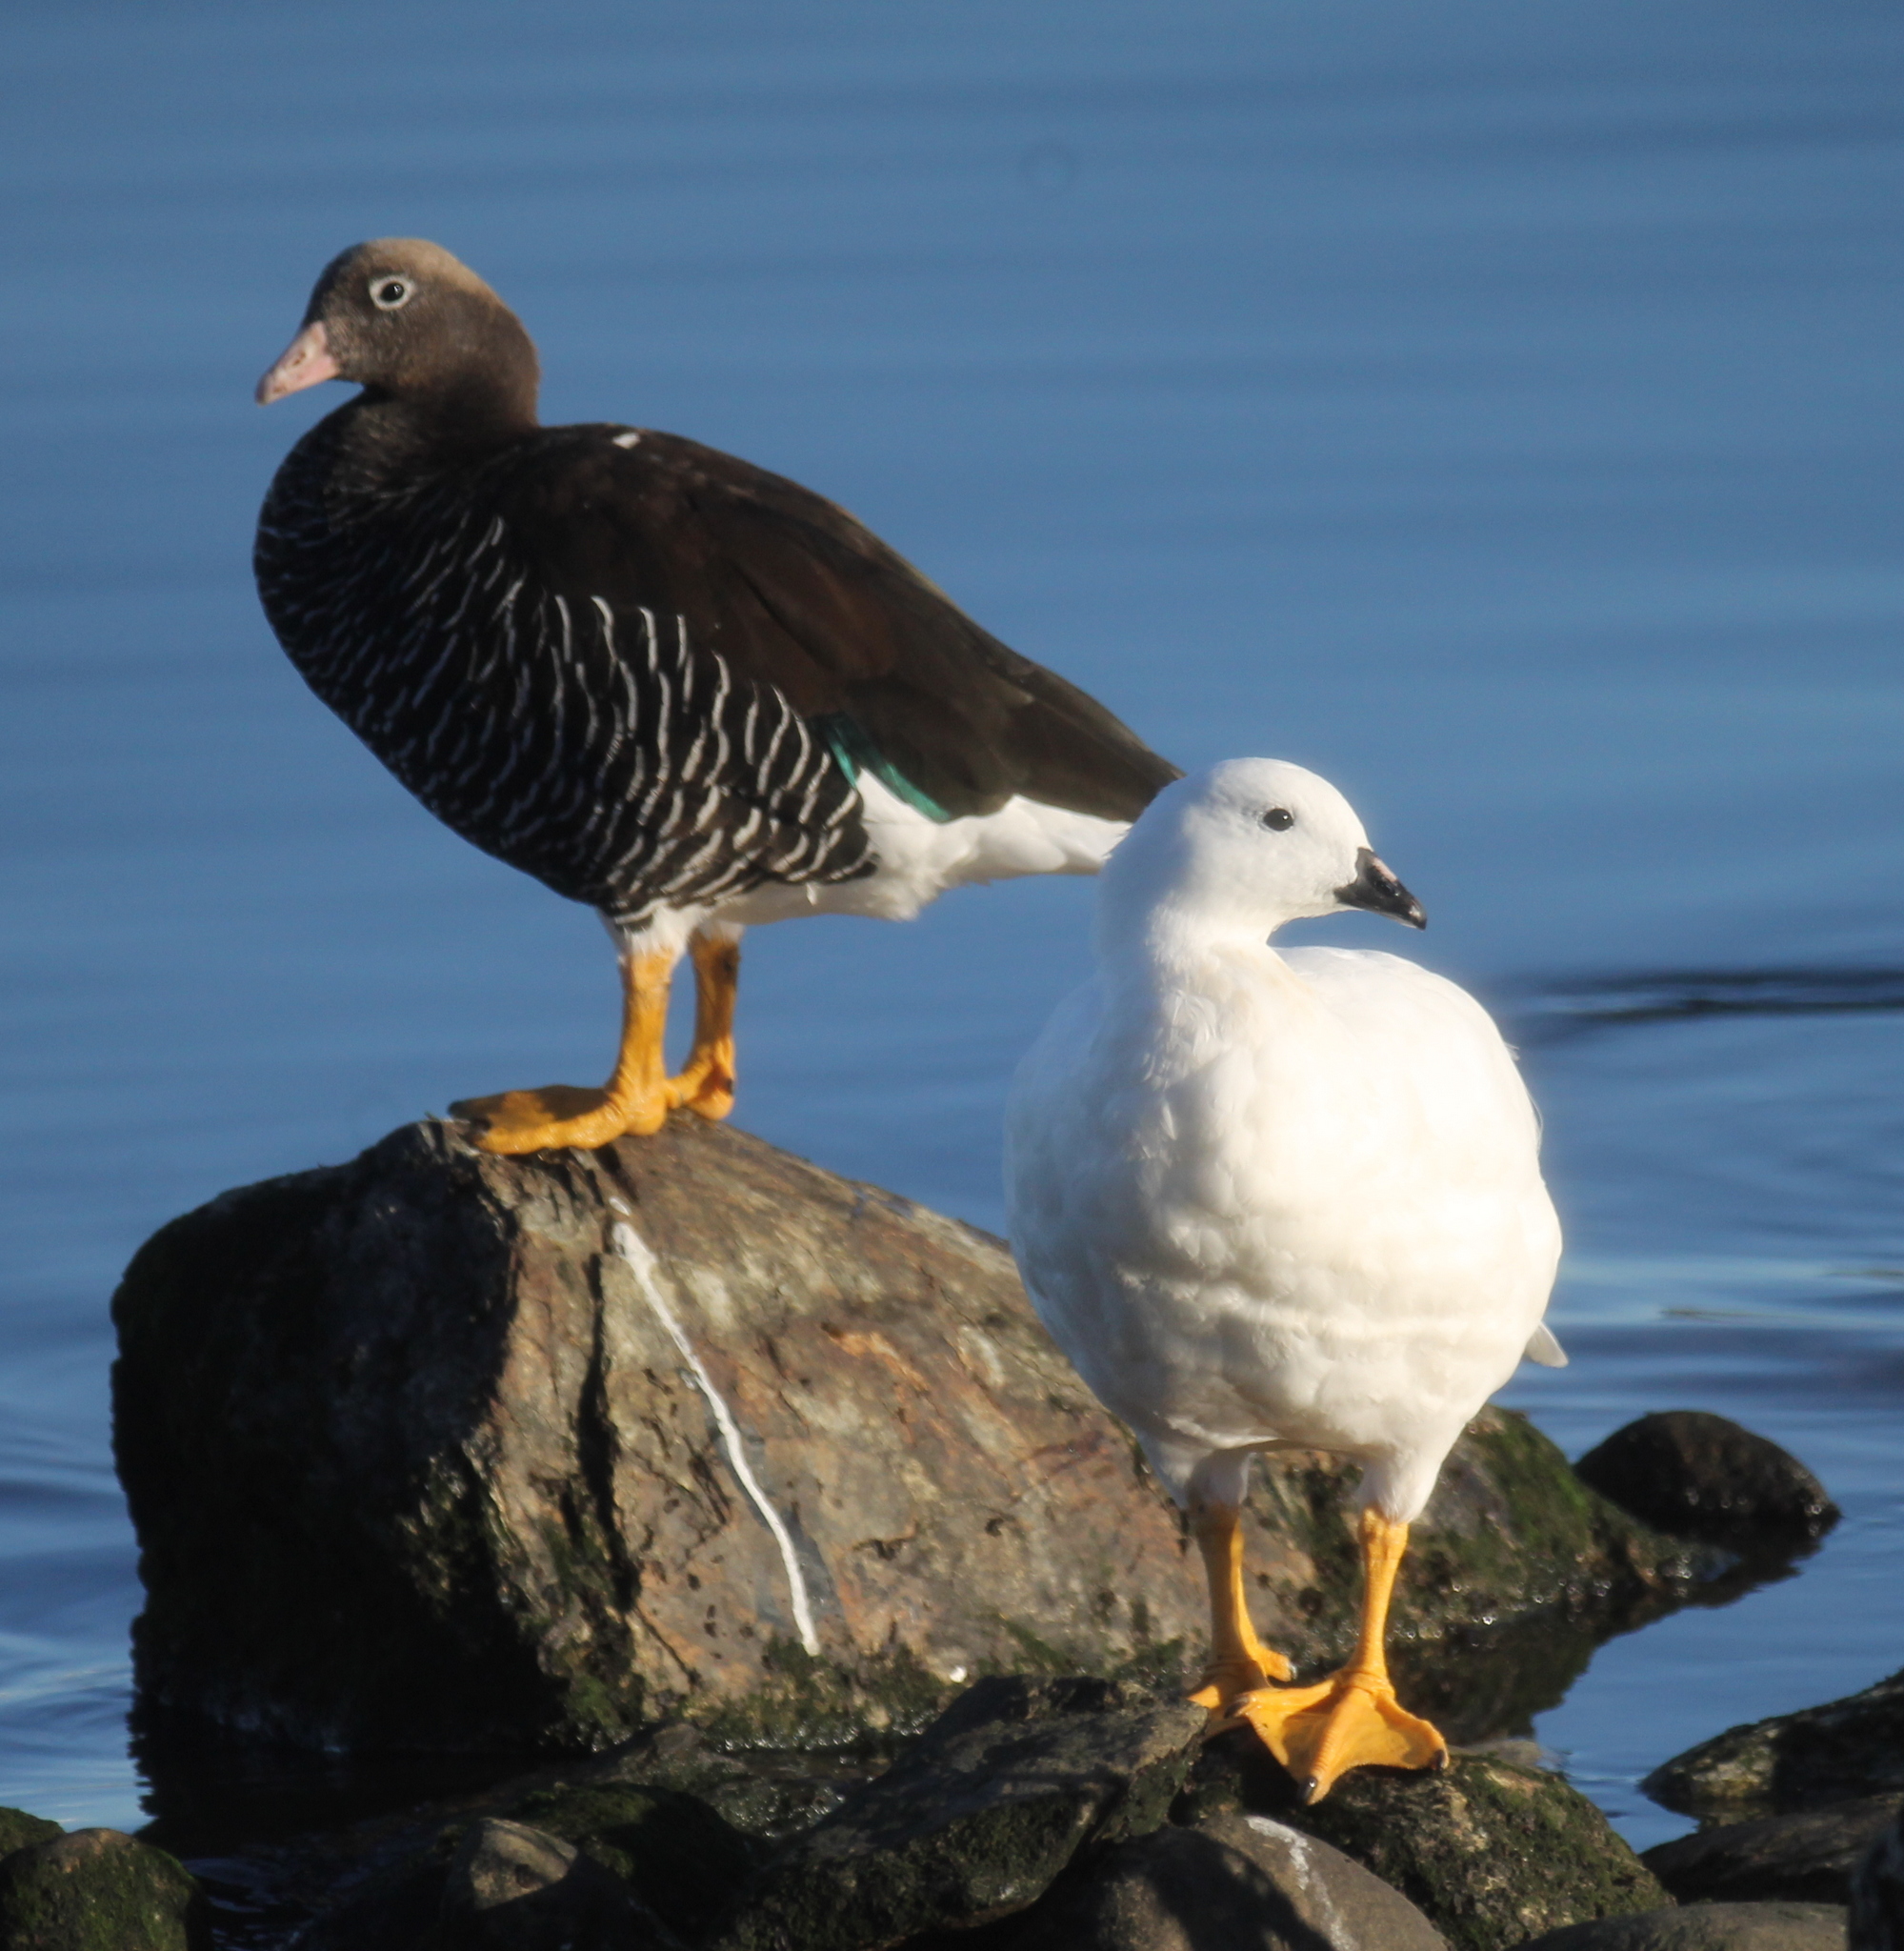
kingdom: Animalia
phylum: Chordata
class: Aves
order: Anseriformes
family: Anatidae
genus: Chloephaga
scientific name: Chloephaga hybrida
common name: Kelp goose
